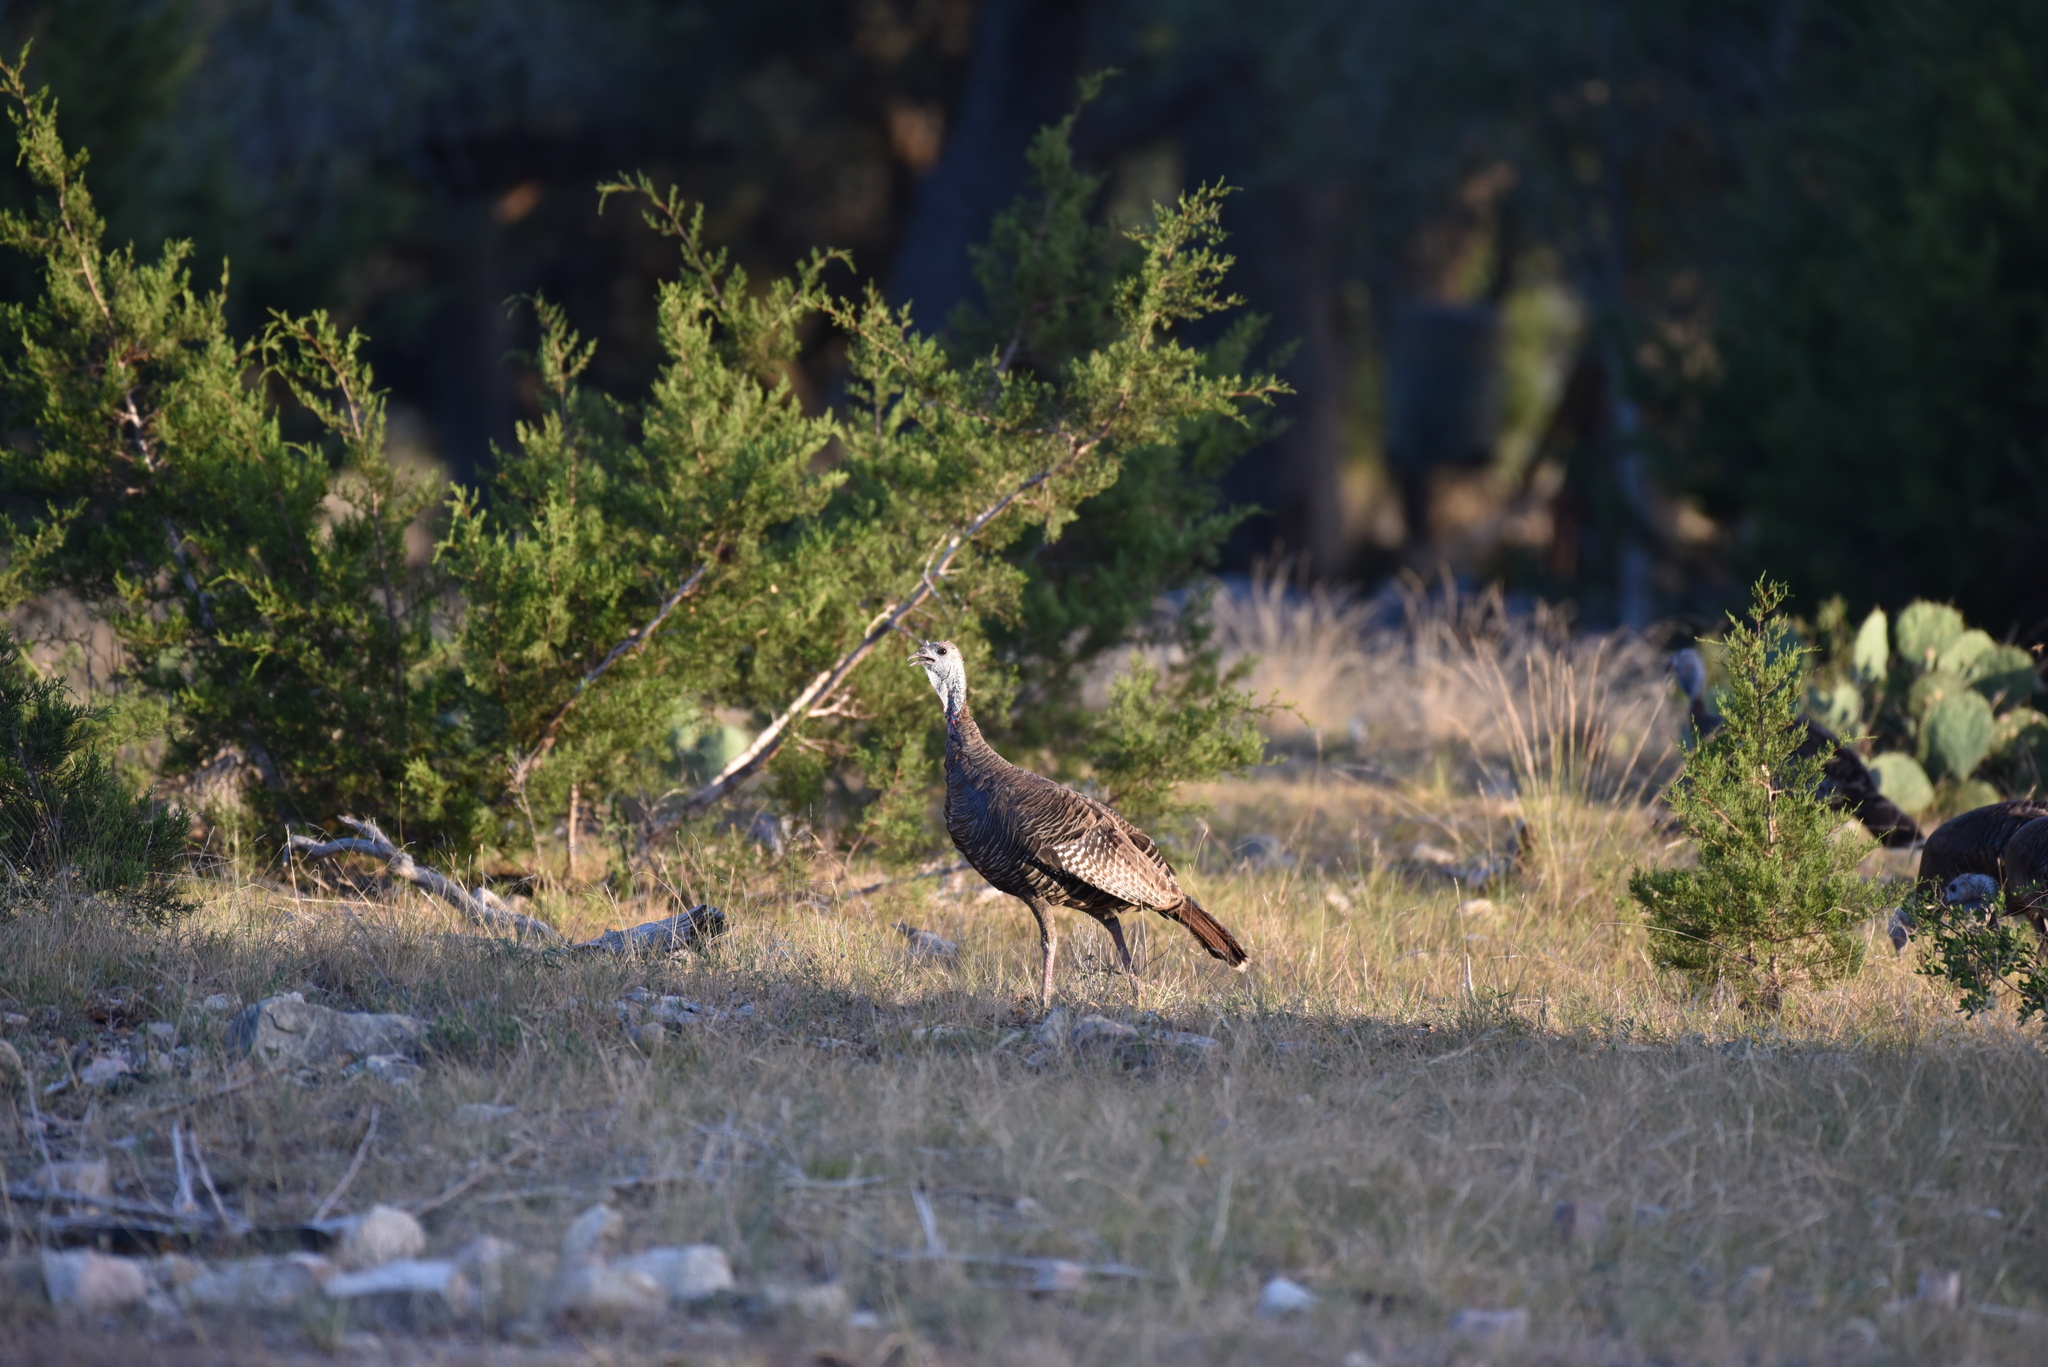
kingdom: Animalia
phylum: Chordata
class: Aves
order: Galliformes
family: Phasianidae
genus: Meleagris
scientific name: Meleagris gallopavo
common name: Wild turkey
